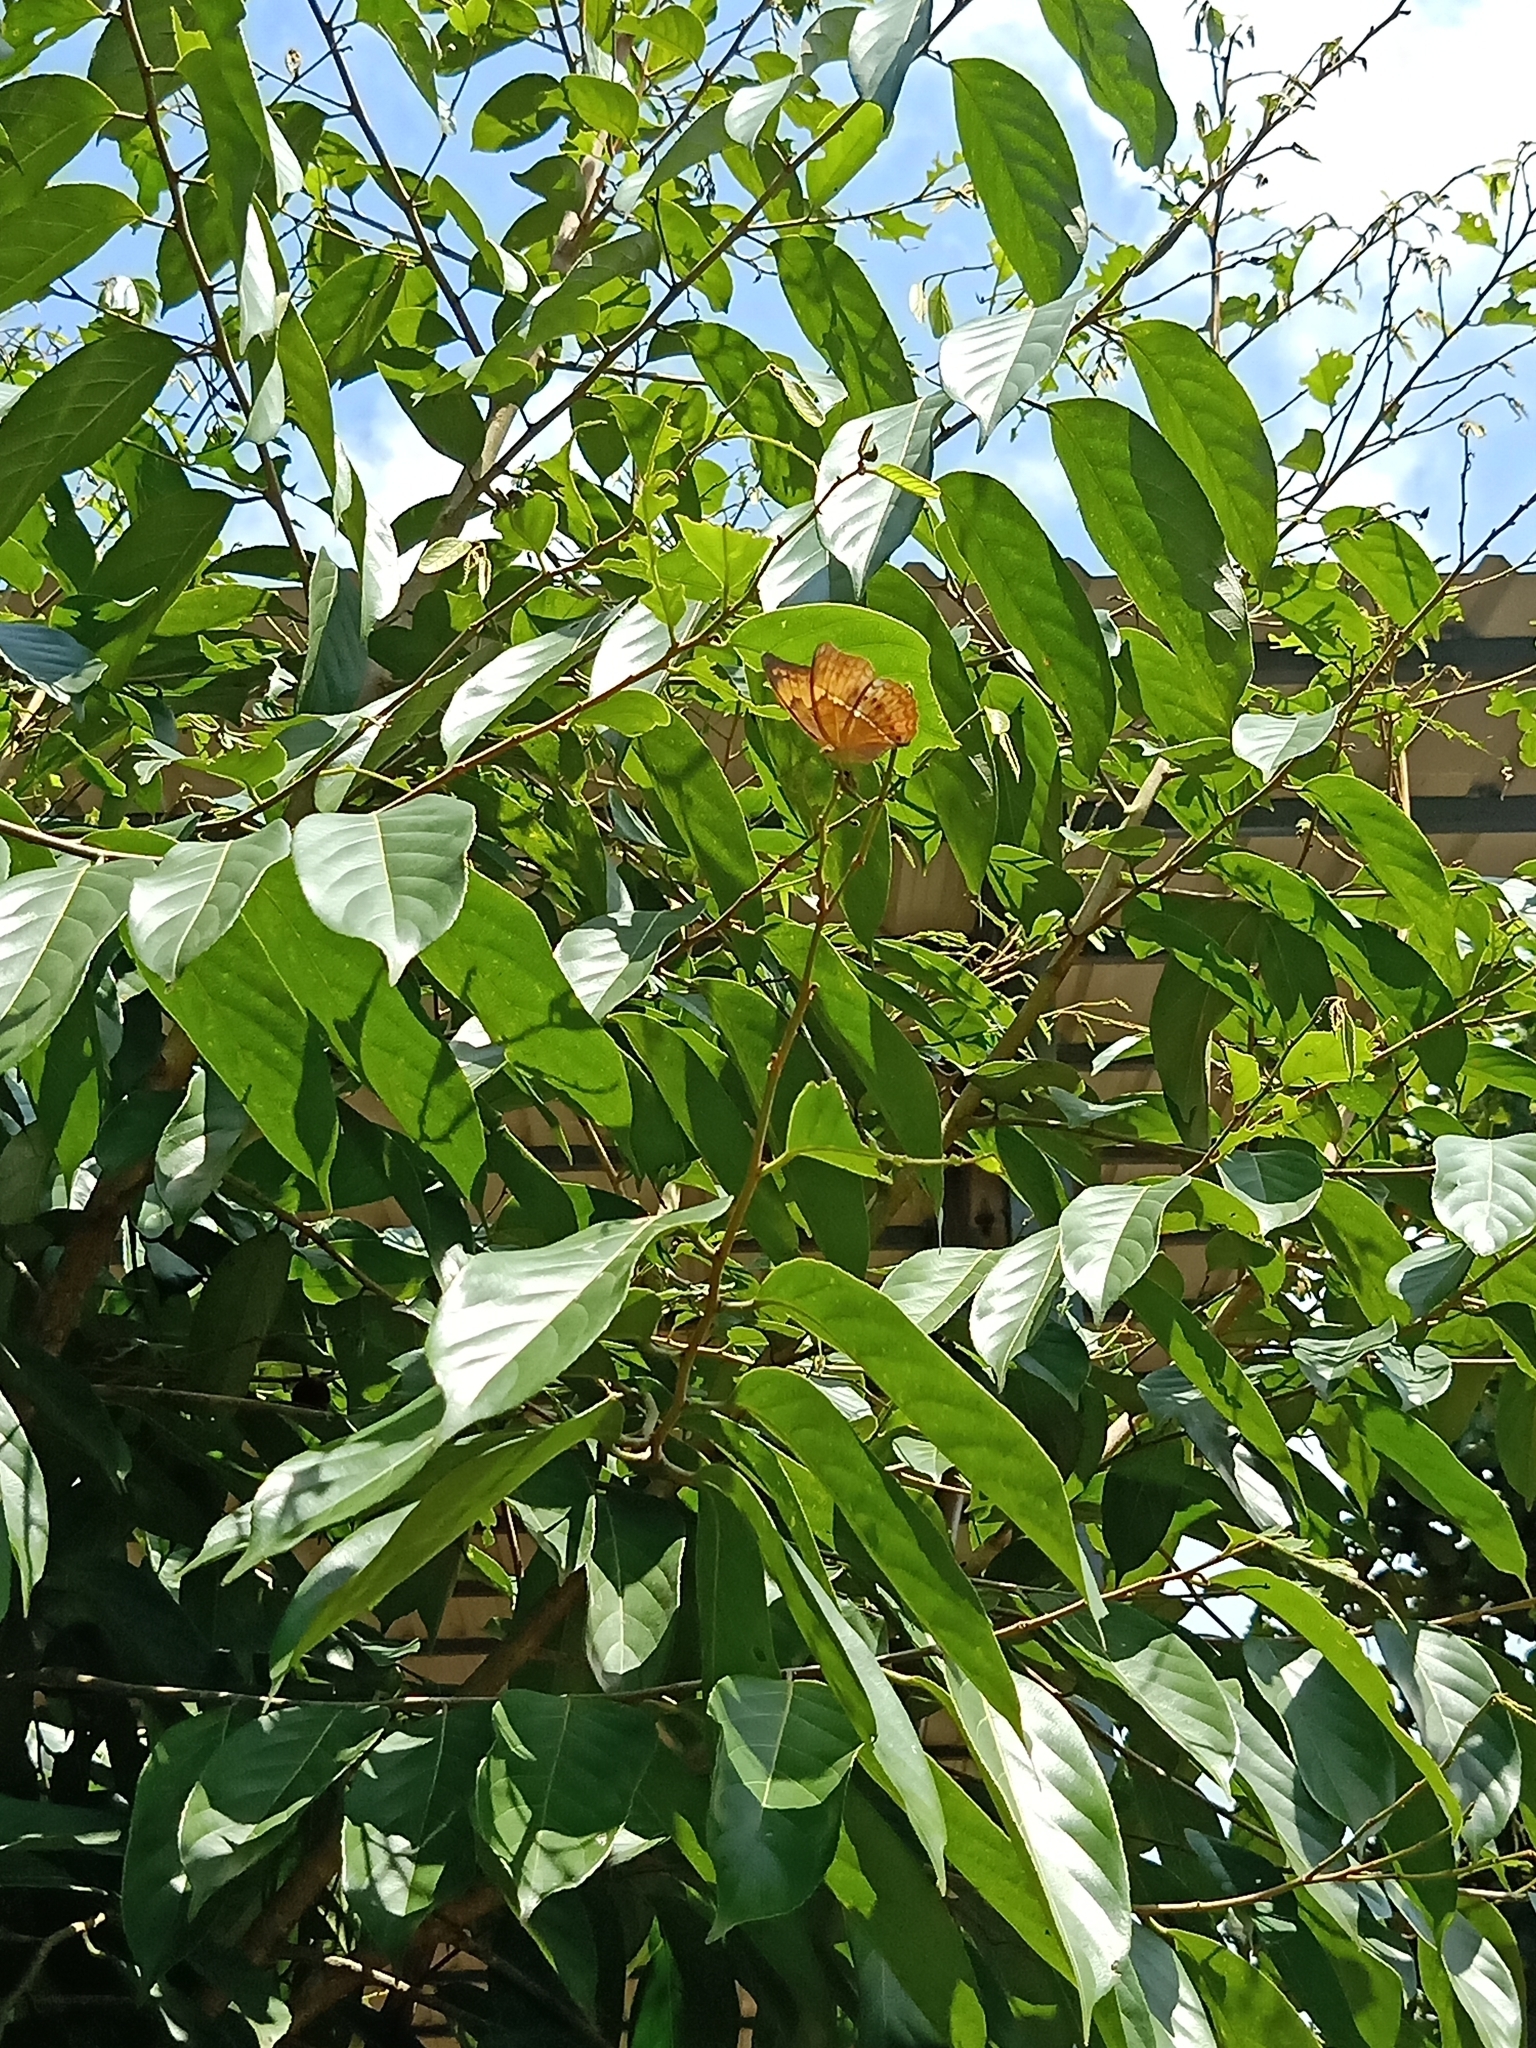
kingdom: Animalia
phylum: Arthropoda
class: Insecta
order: Lepidoptera
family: Nymphalidae
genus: Cirrochroa
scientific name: Cirrochroa thais
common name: Tamil yeoman
